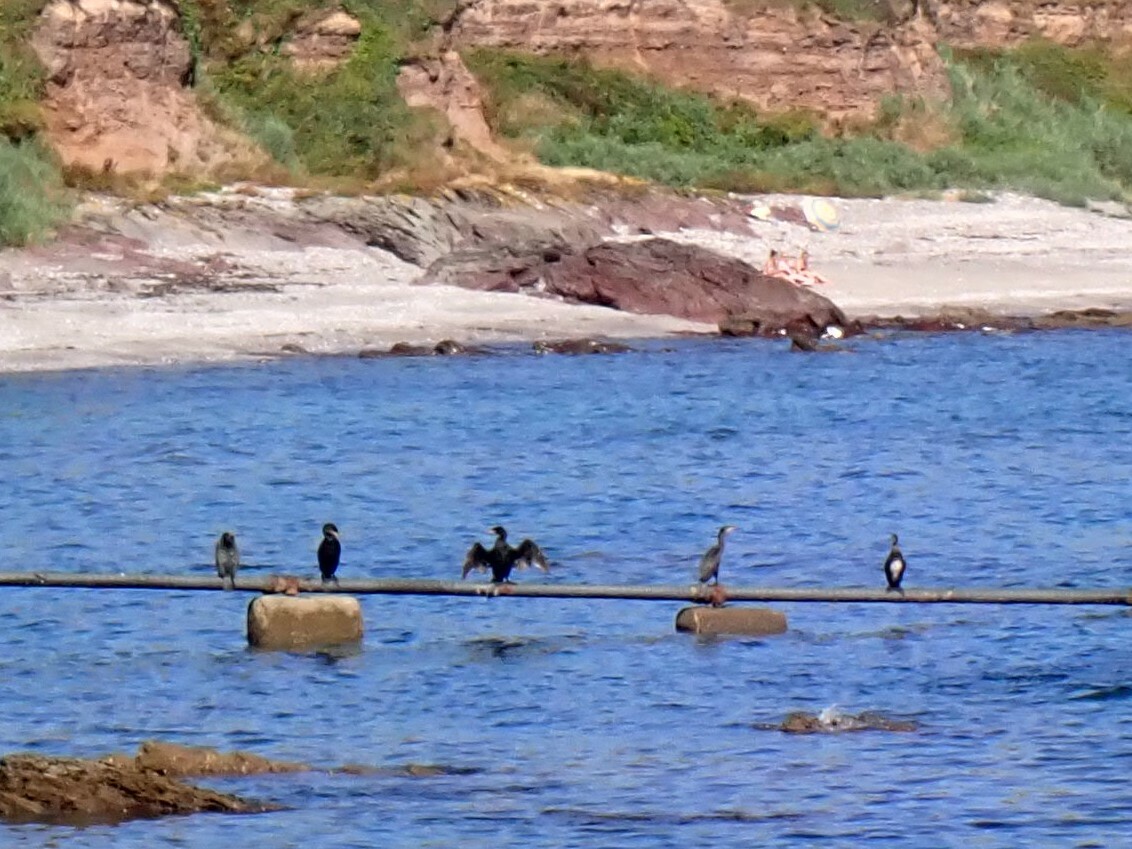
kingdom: Animalia
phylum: Chordata
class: Aves
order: Suliformes
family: Phalacrocoracidae
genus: Phalacrocorax
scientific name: Phalacrocorax carbo
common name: Great cormorant
